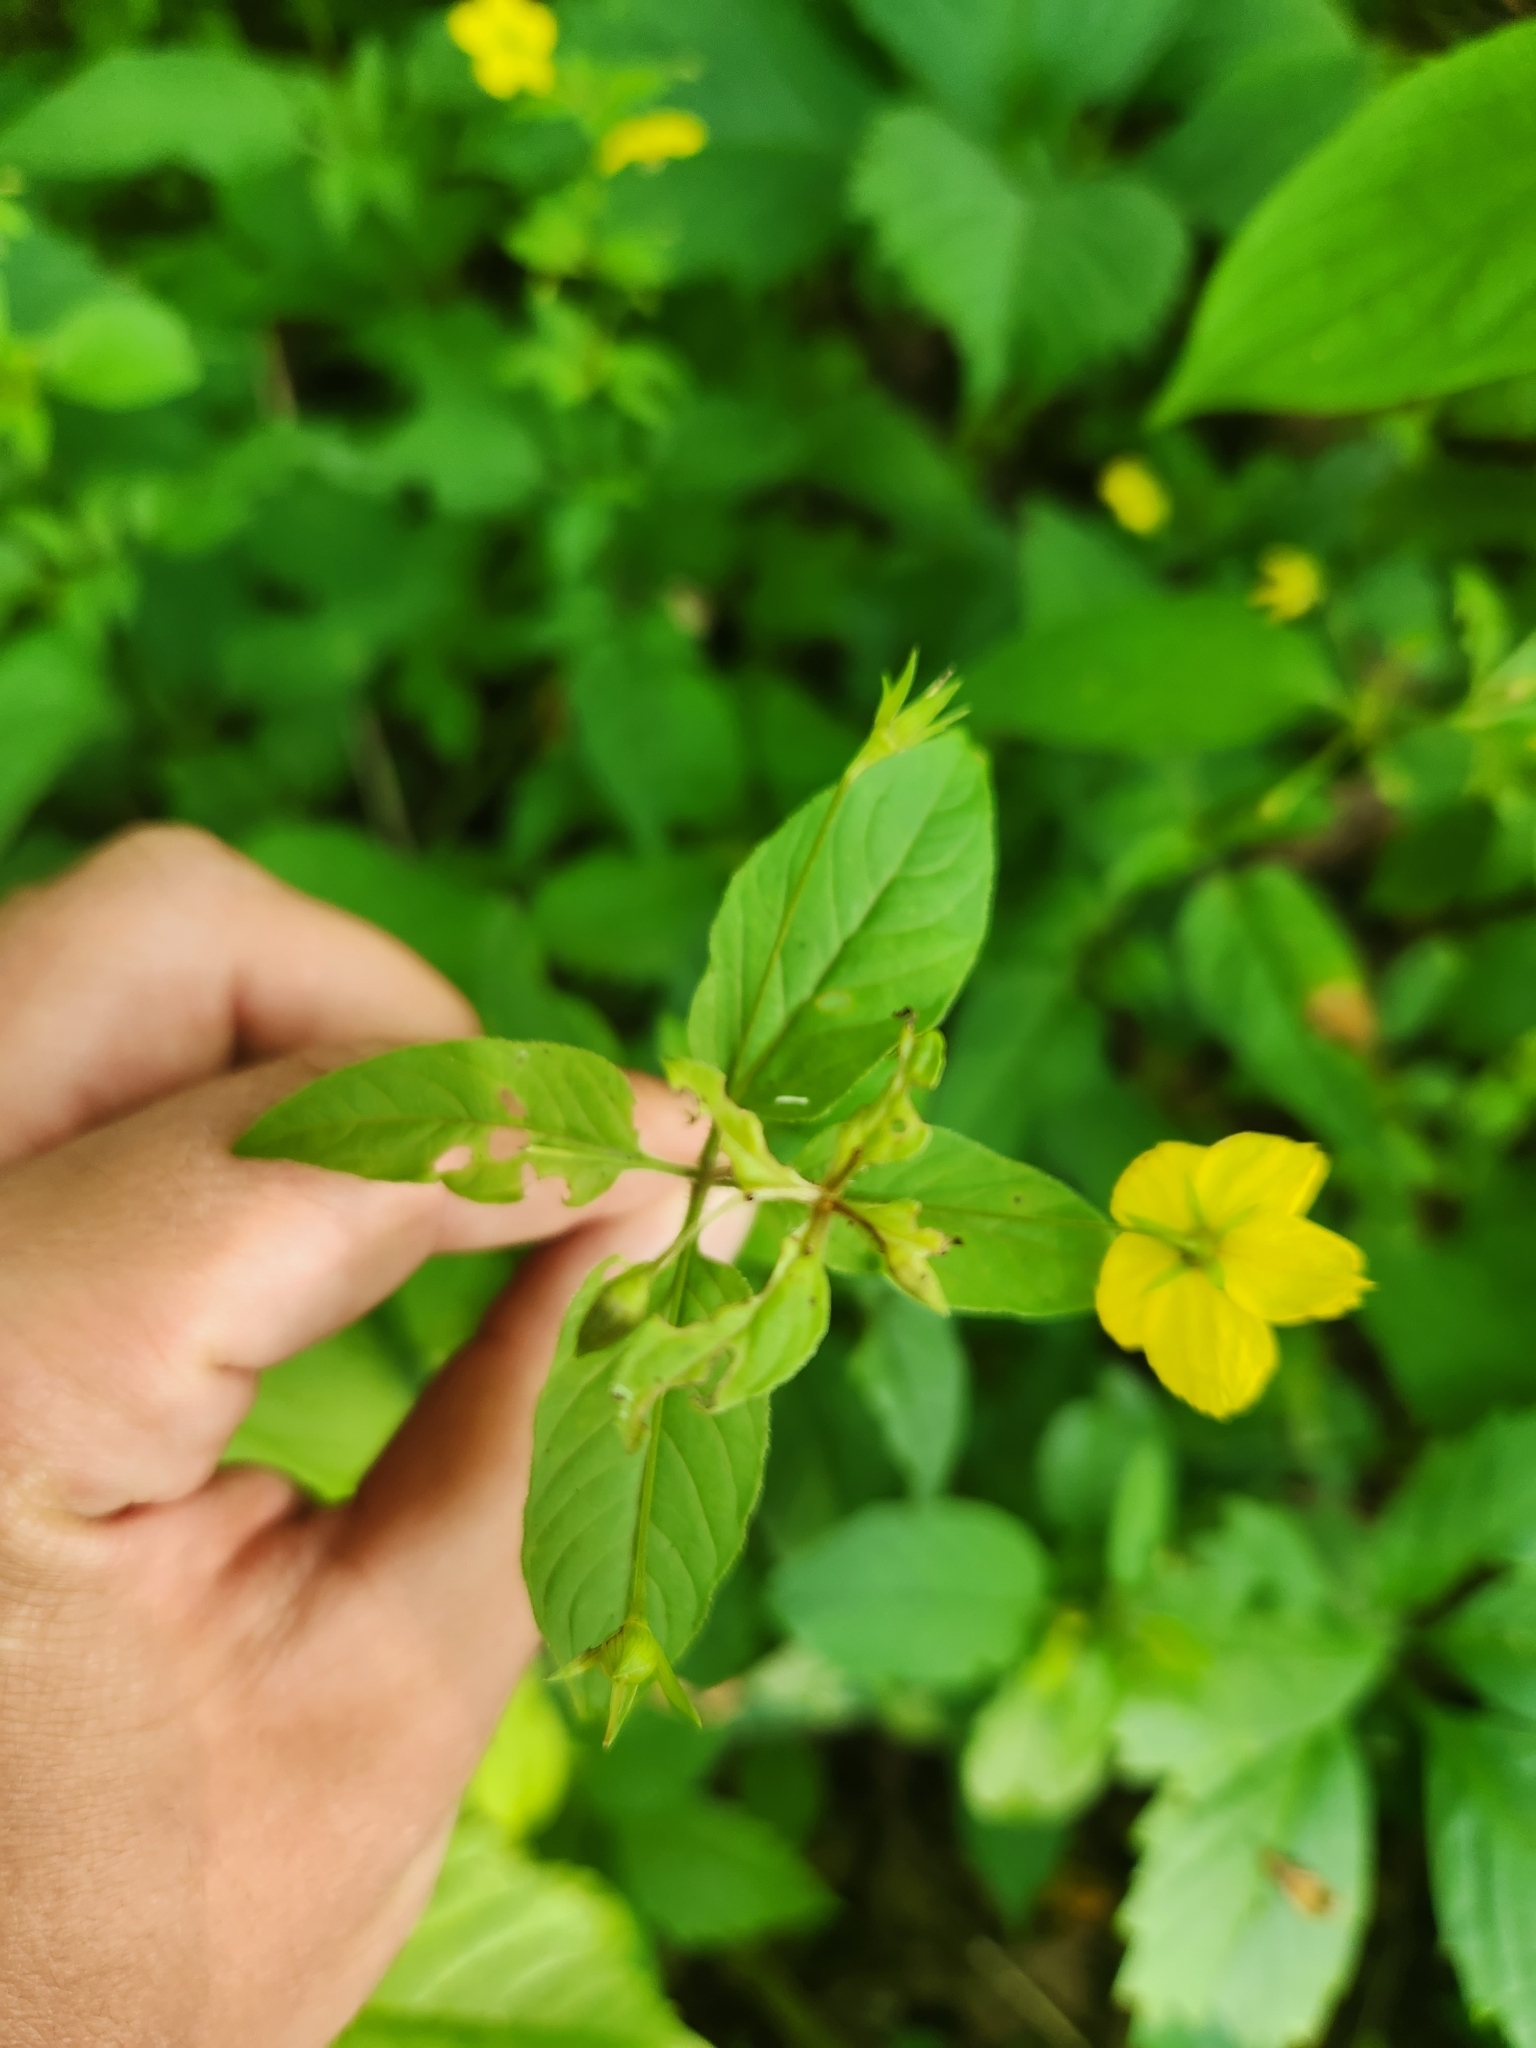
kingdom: Plantae
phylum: Tracheophyta
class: Magnoliopsida
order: Ericales
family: Primulaceae
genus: Lysimachia
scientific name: Lysimachia ciliata
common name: Fringed loosestrife
